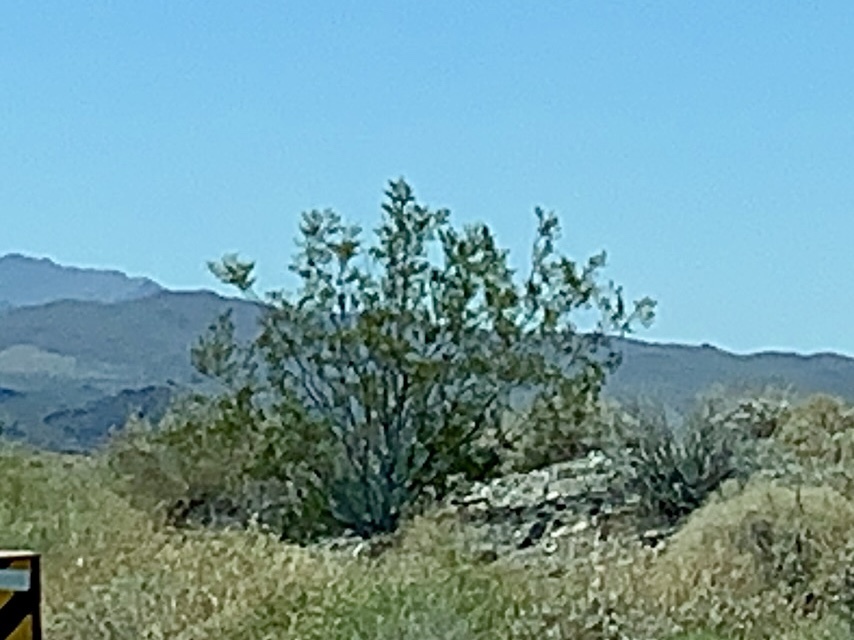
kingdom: Plantae
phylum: Tracheophyta
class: Magnoliopsida
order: Zygophyllales
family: Zygophyllaceae
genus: Larrea
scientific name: Larrea tridentata
